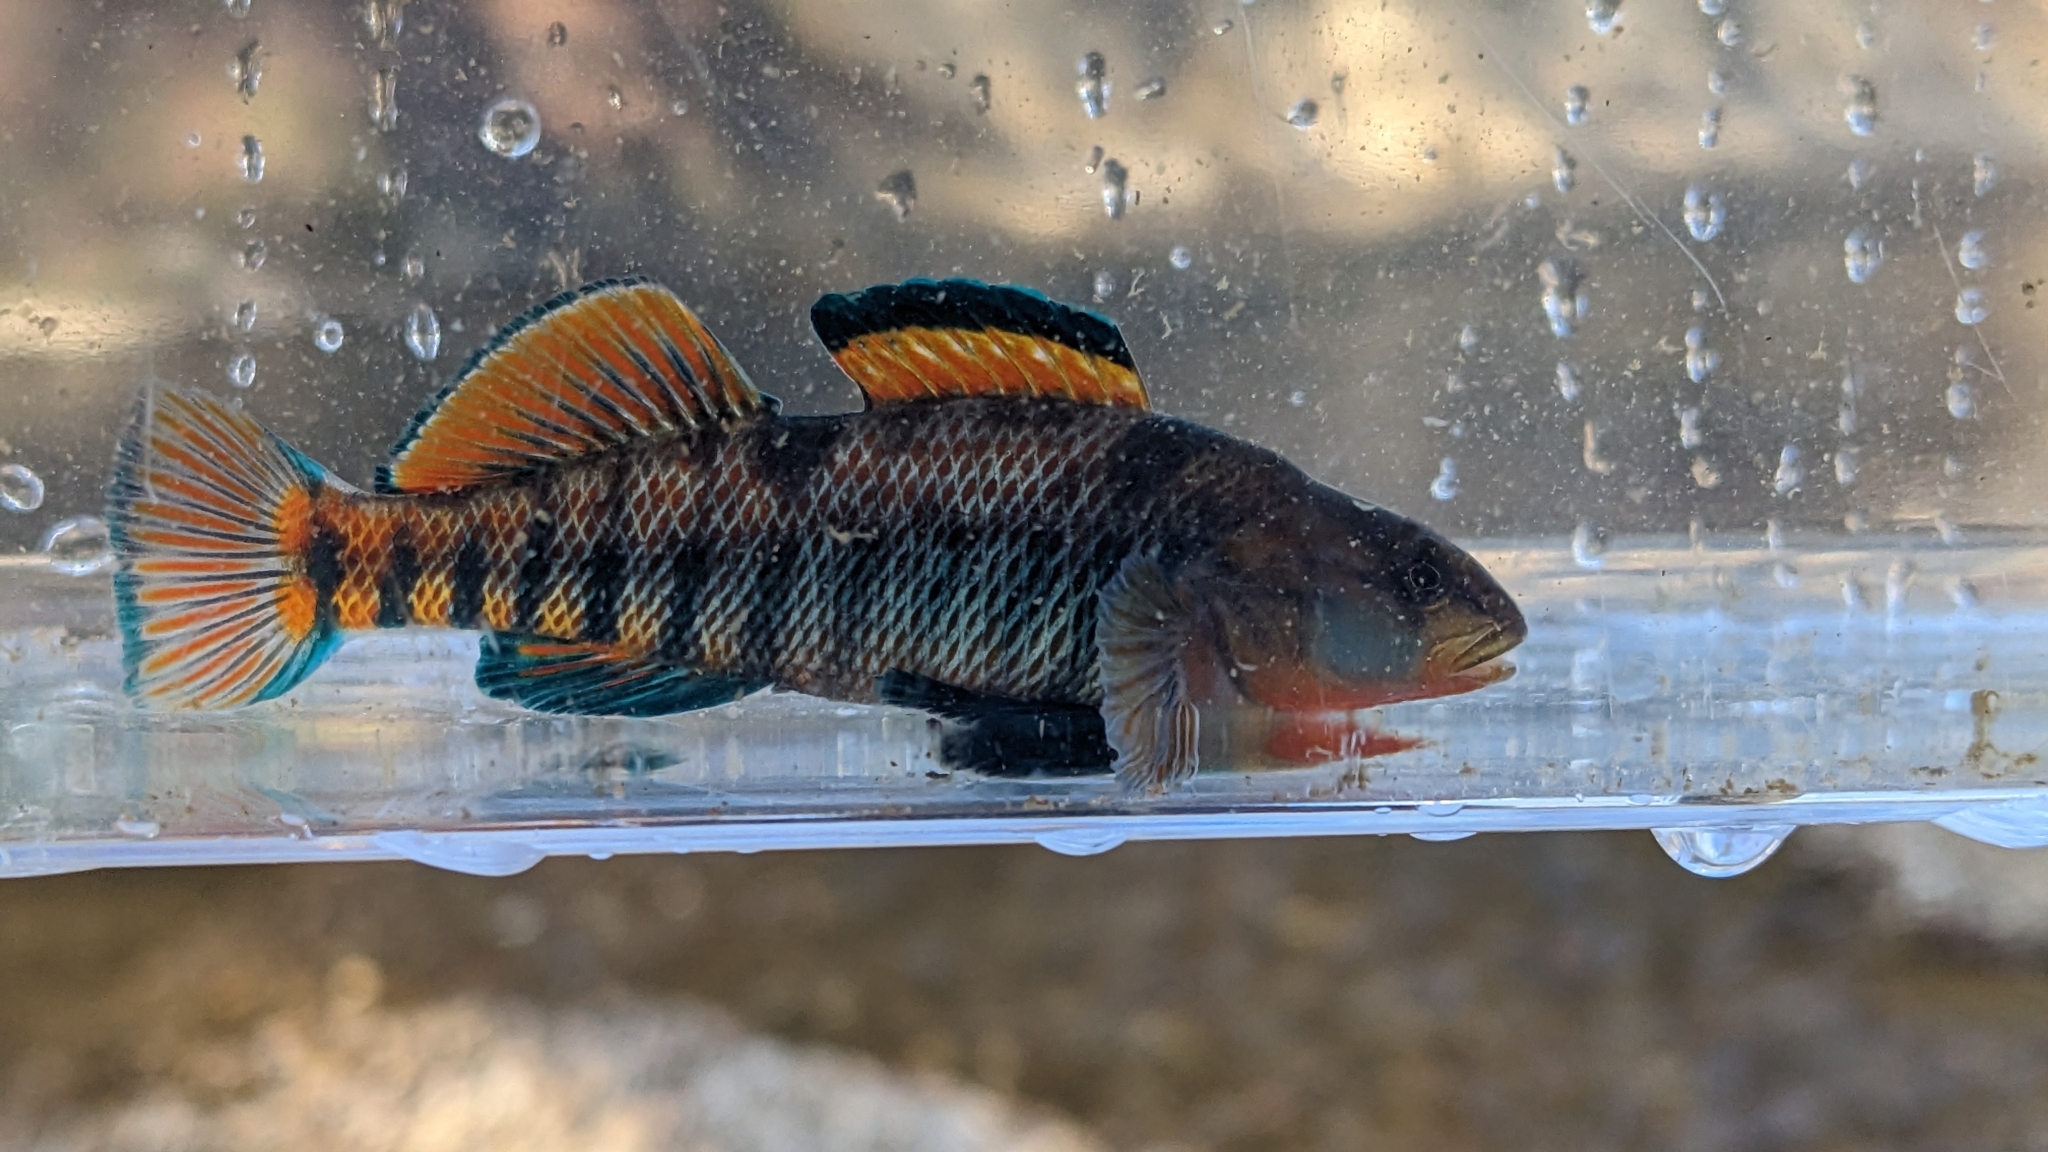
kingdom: Animalia
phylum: Chordata
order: Perciformes
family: Percidae
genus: Etheostoma
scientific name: Etheostoma caeruleum
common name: Rainbow darter
